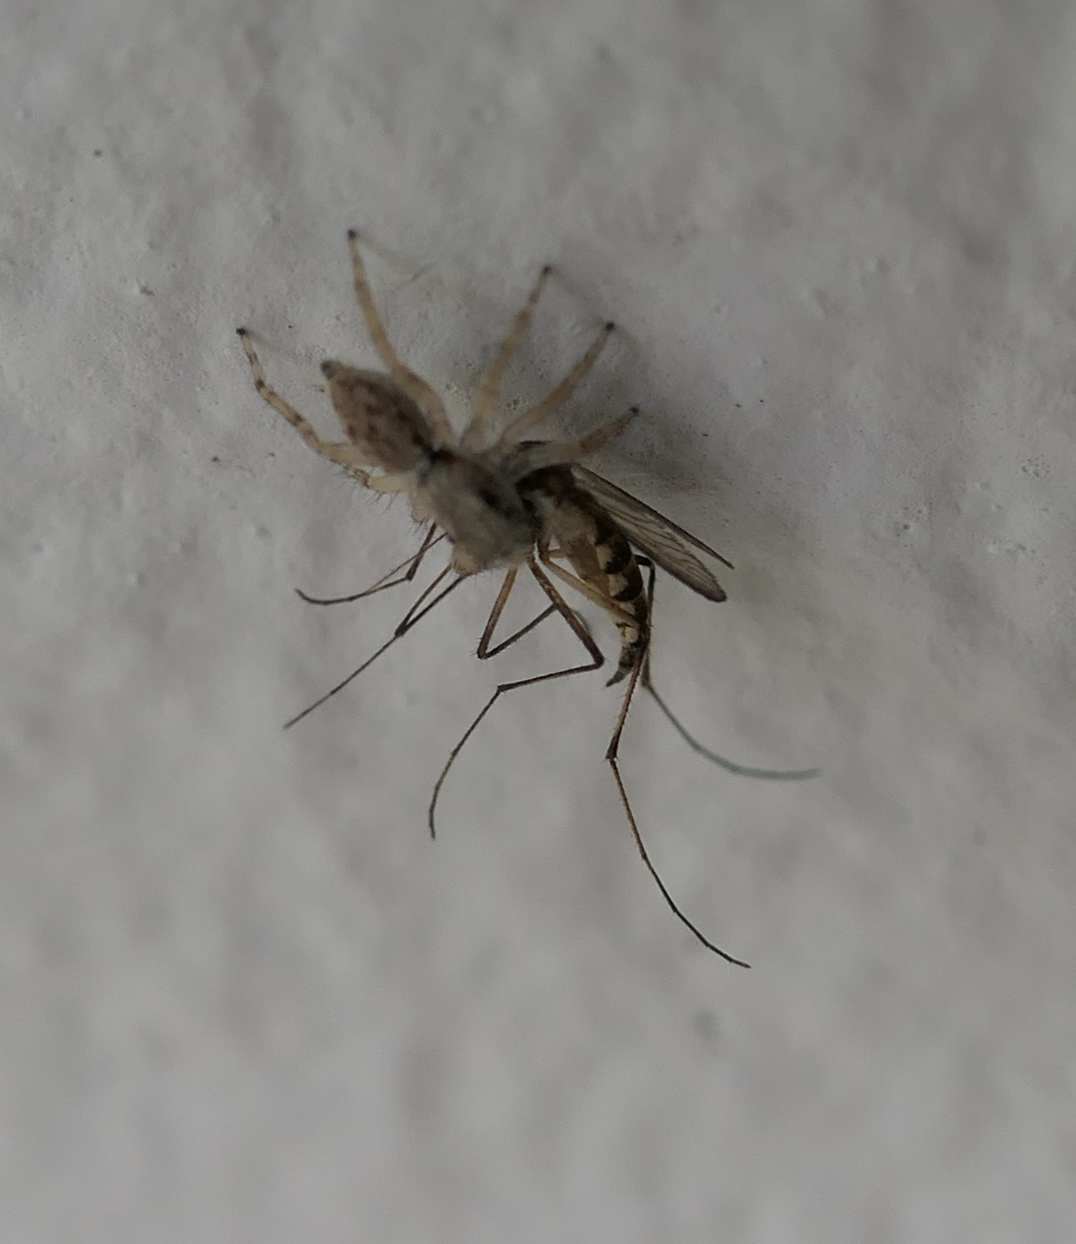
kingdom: Animalia
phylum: Arthropoda
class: Arachnida
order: Araneae
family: Salticidae
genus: Menemerus
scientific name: Menemerus bivittatus
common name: Gray wall jumper
